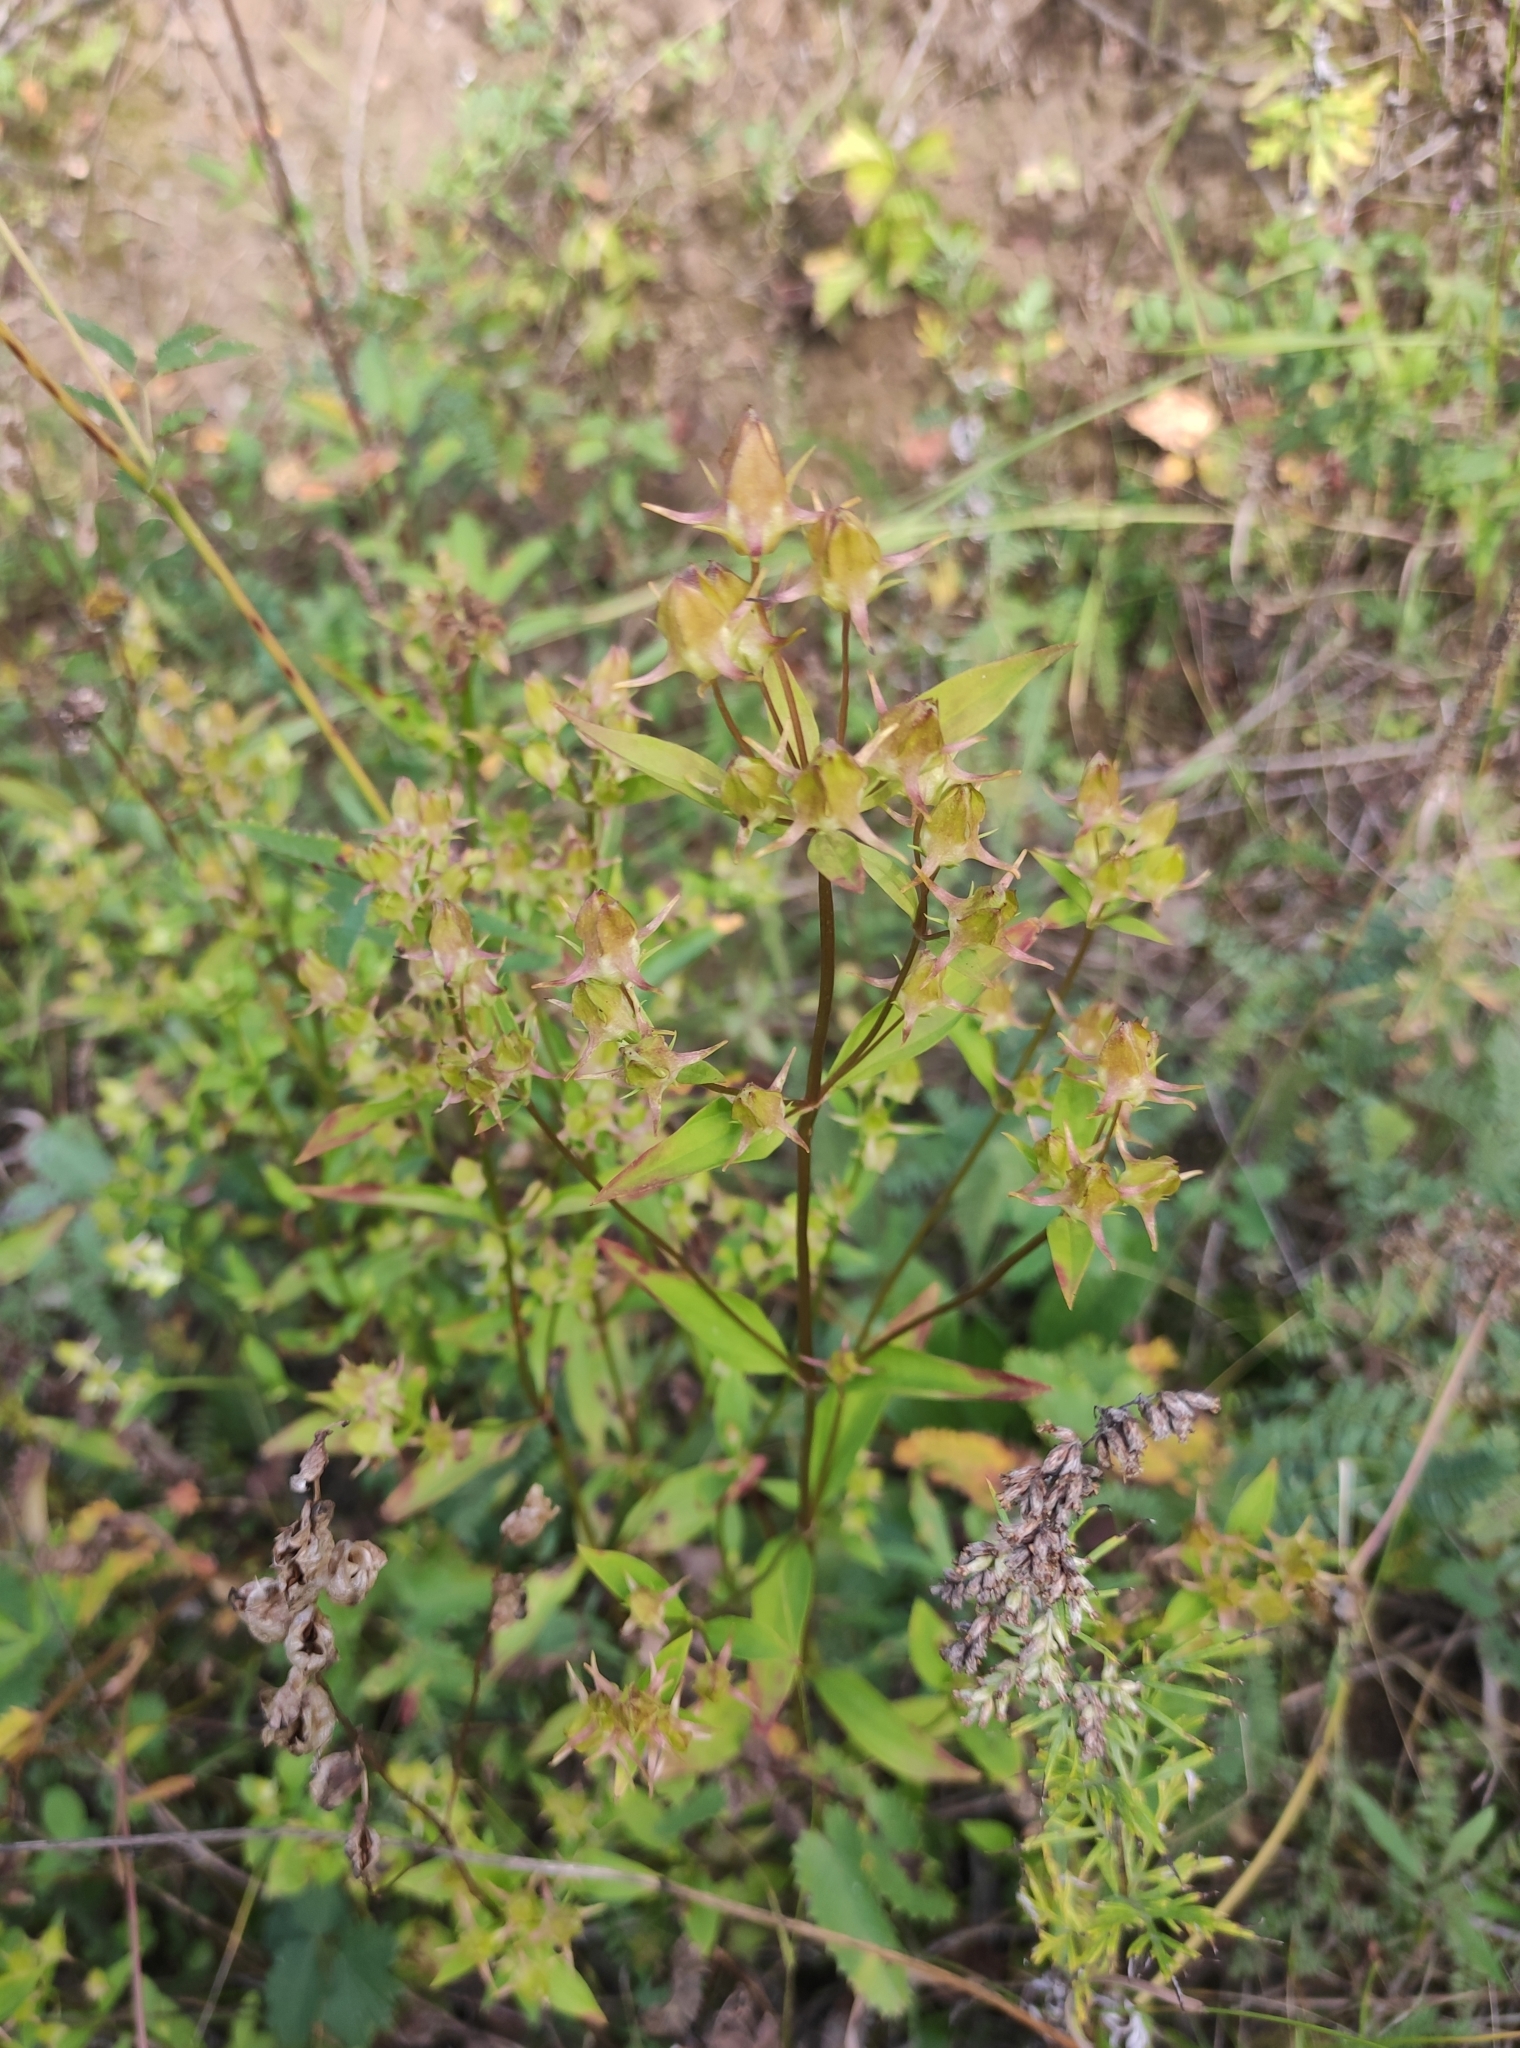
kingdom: Plantae
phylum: Tracheophyta
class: Magnoliopsida
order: Gentianales
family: Gentianaceae
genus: Halenia
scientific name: Halenia corniculata
